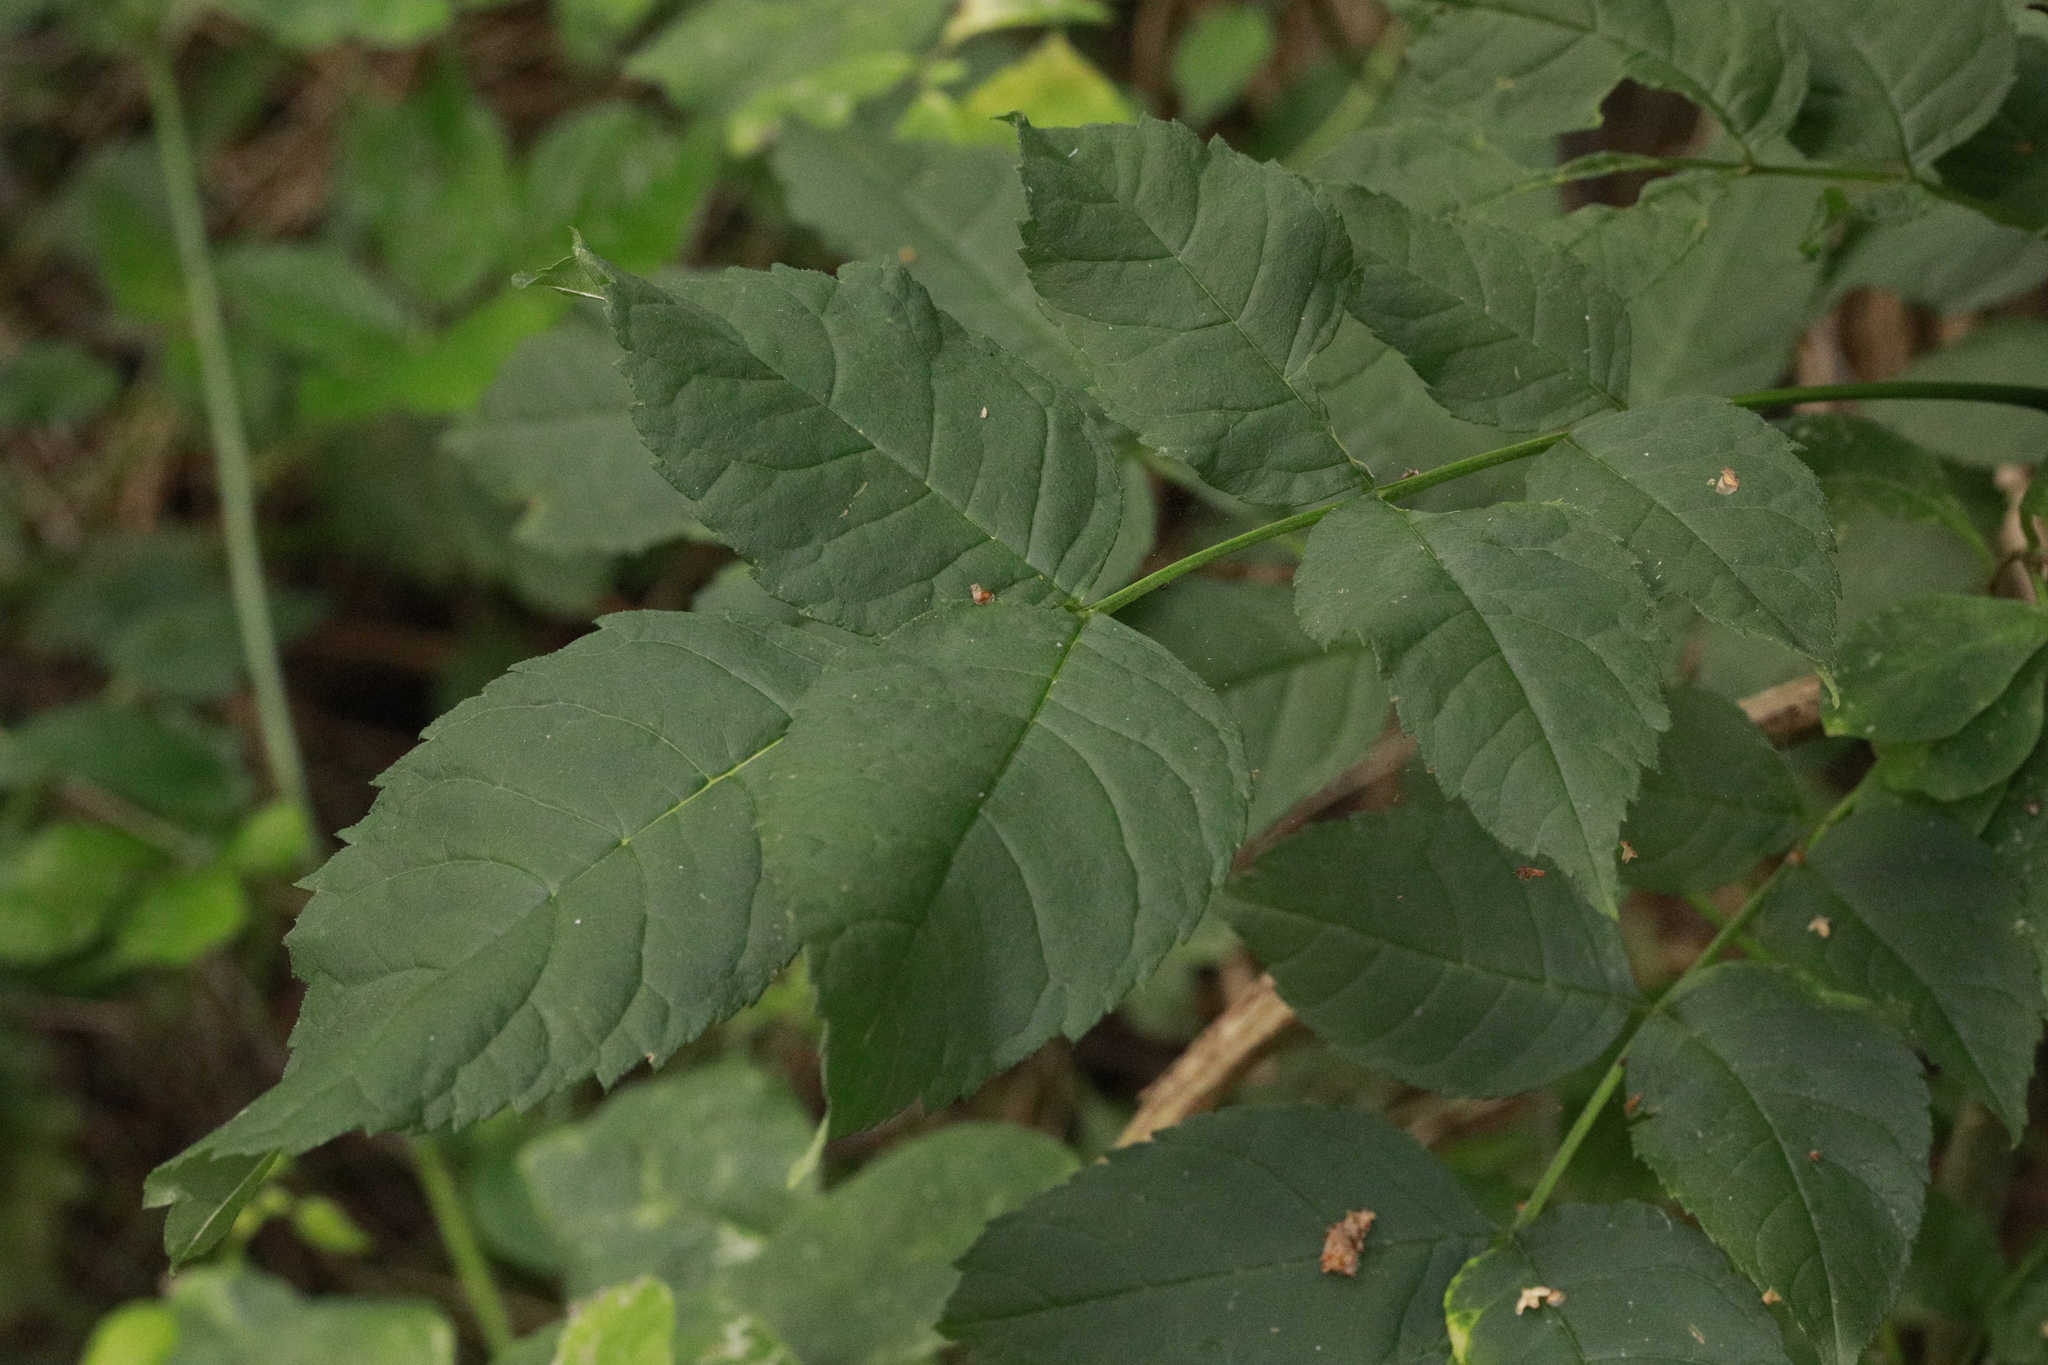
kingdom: Plantae
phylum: Tracheophyta
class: Magnoliopsida
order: Lamiales
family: Oleaceae
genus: Fraxinus
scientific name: Fraxinus excelsior
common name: European ash
